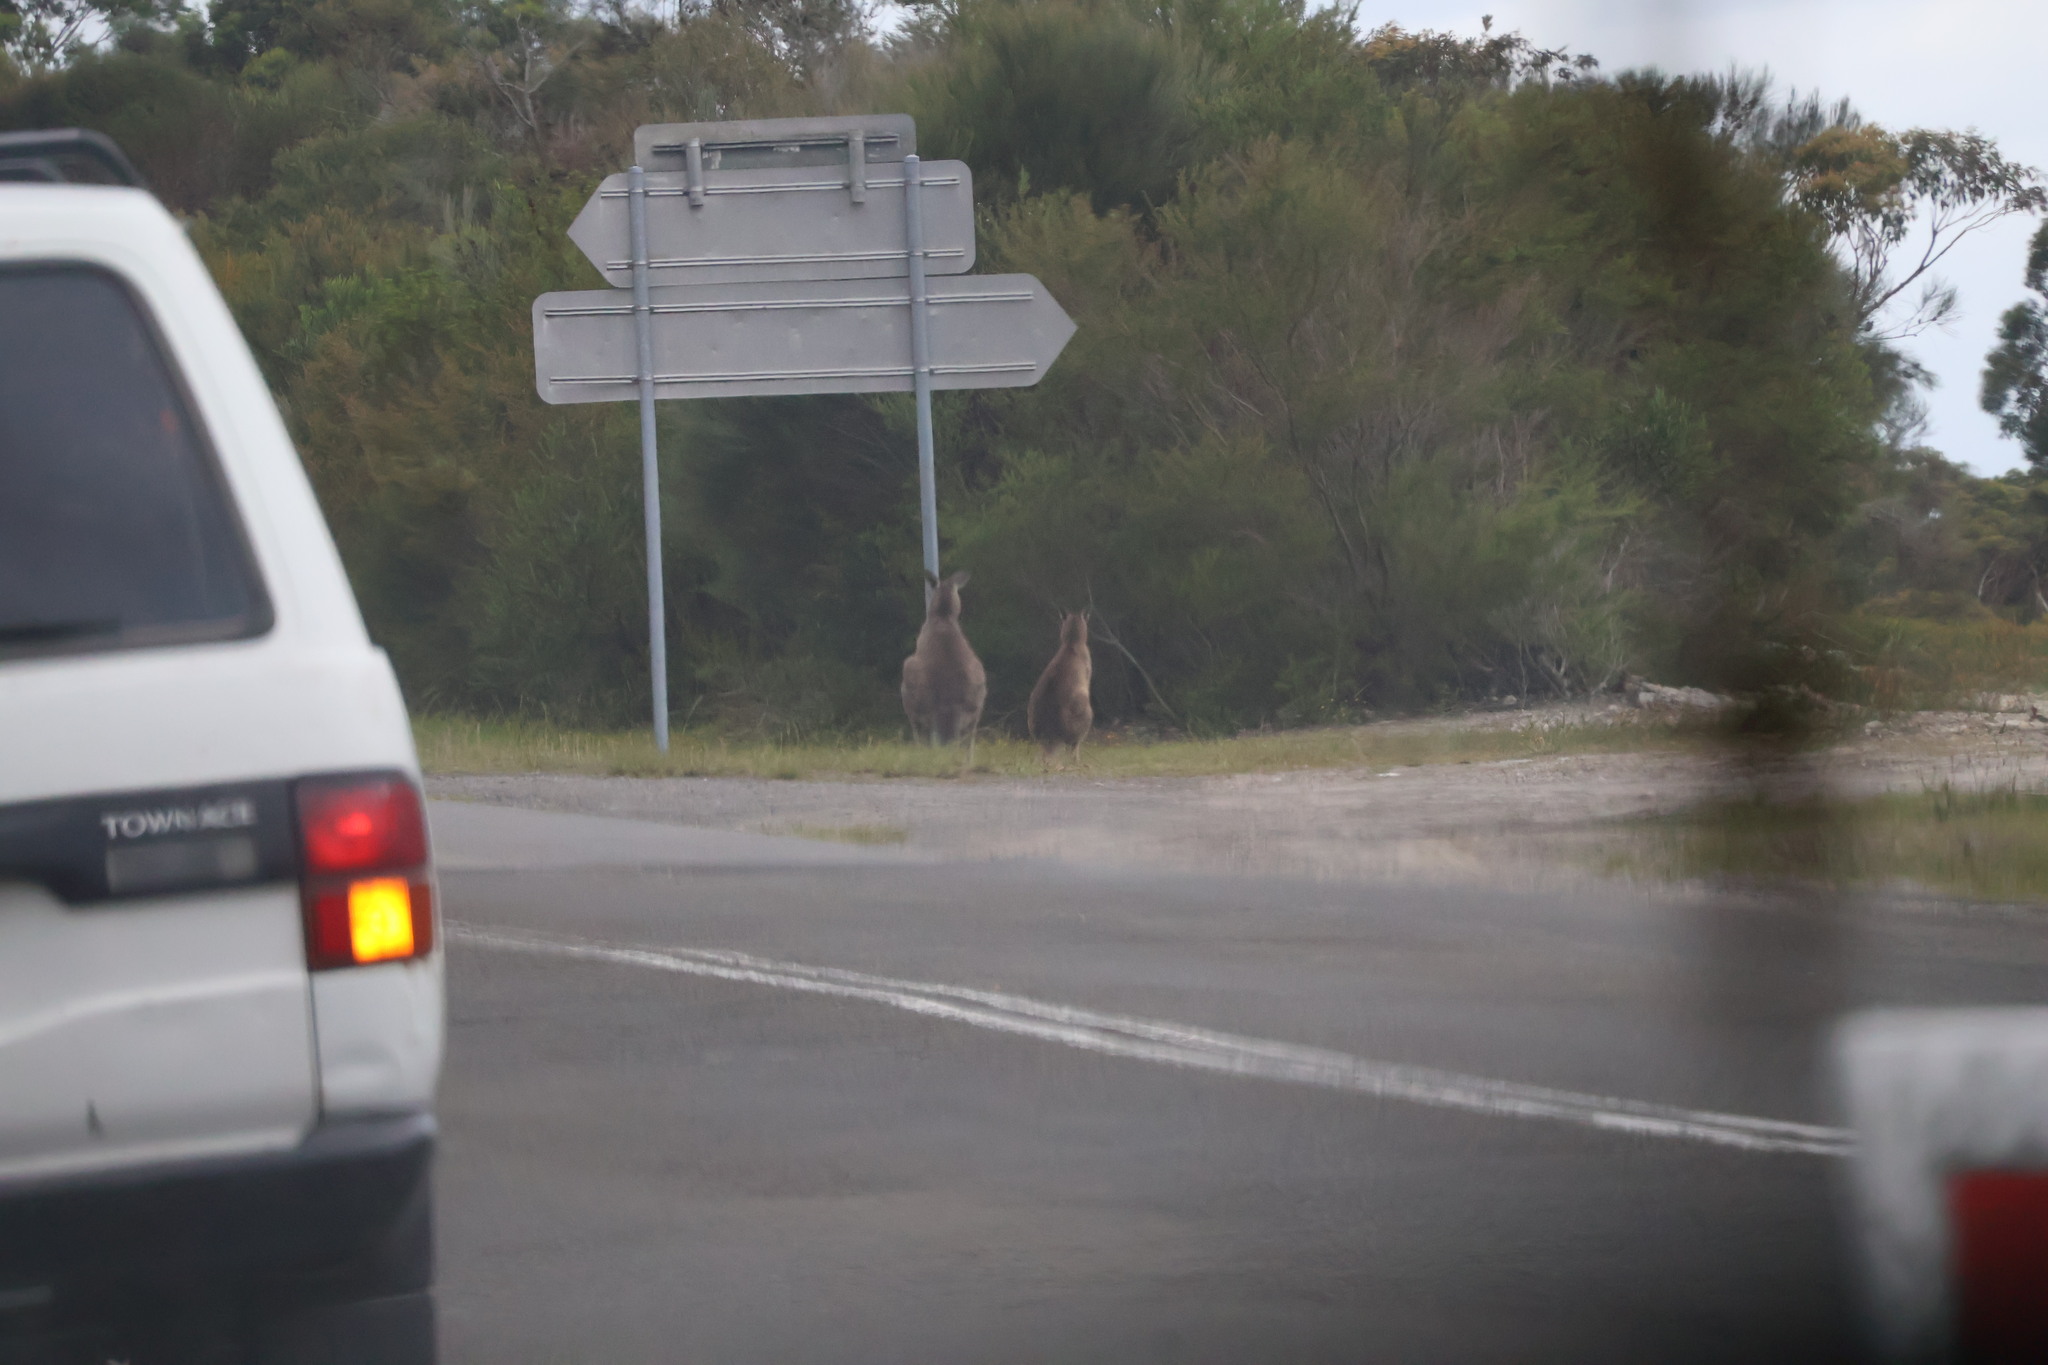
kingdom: Animalia
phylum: Chordata
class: Mammalia
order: Diprotodontia
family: Macropodidae
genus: Macropus
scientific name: Macropus giganteus
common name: Eastern grey kangaroo
